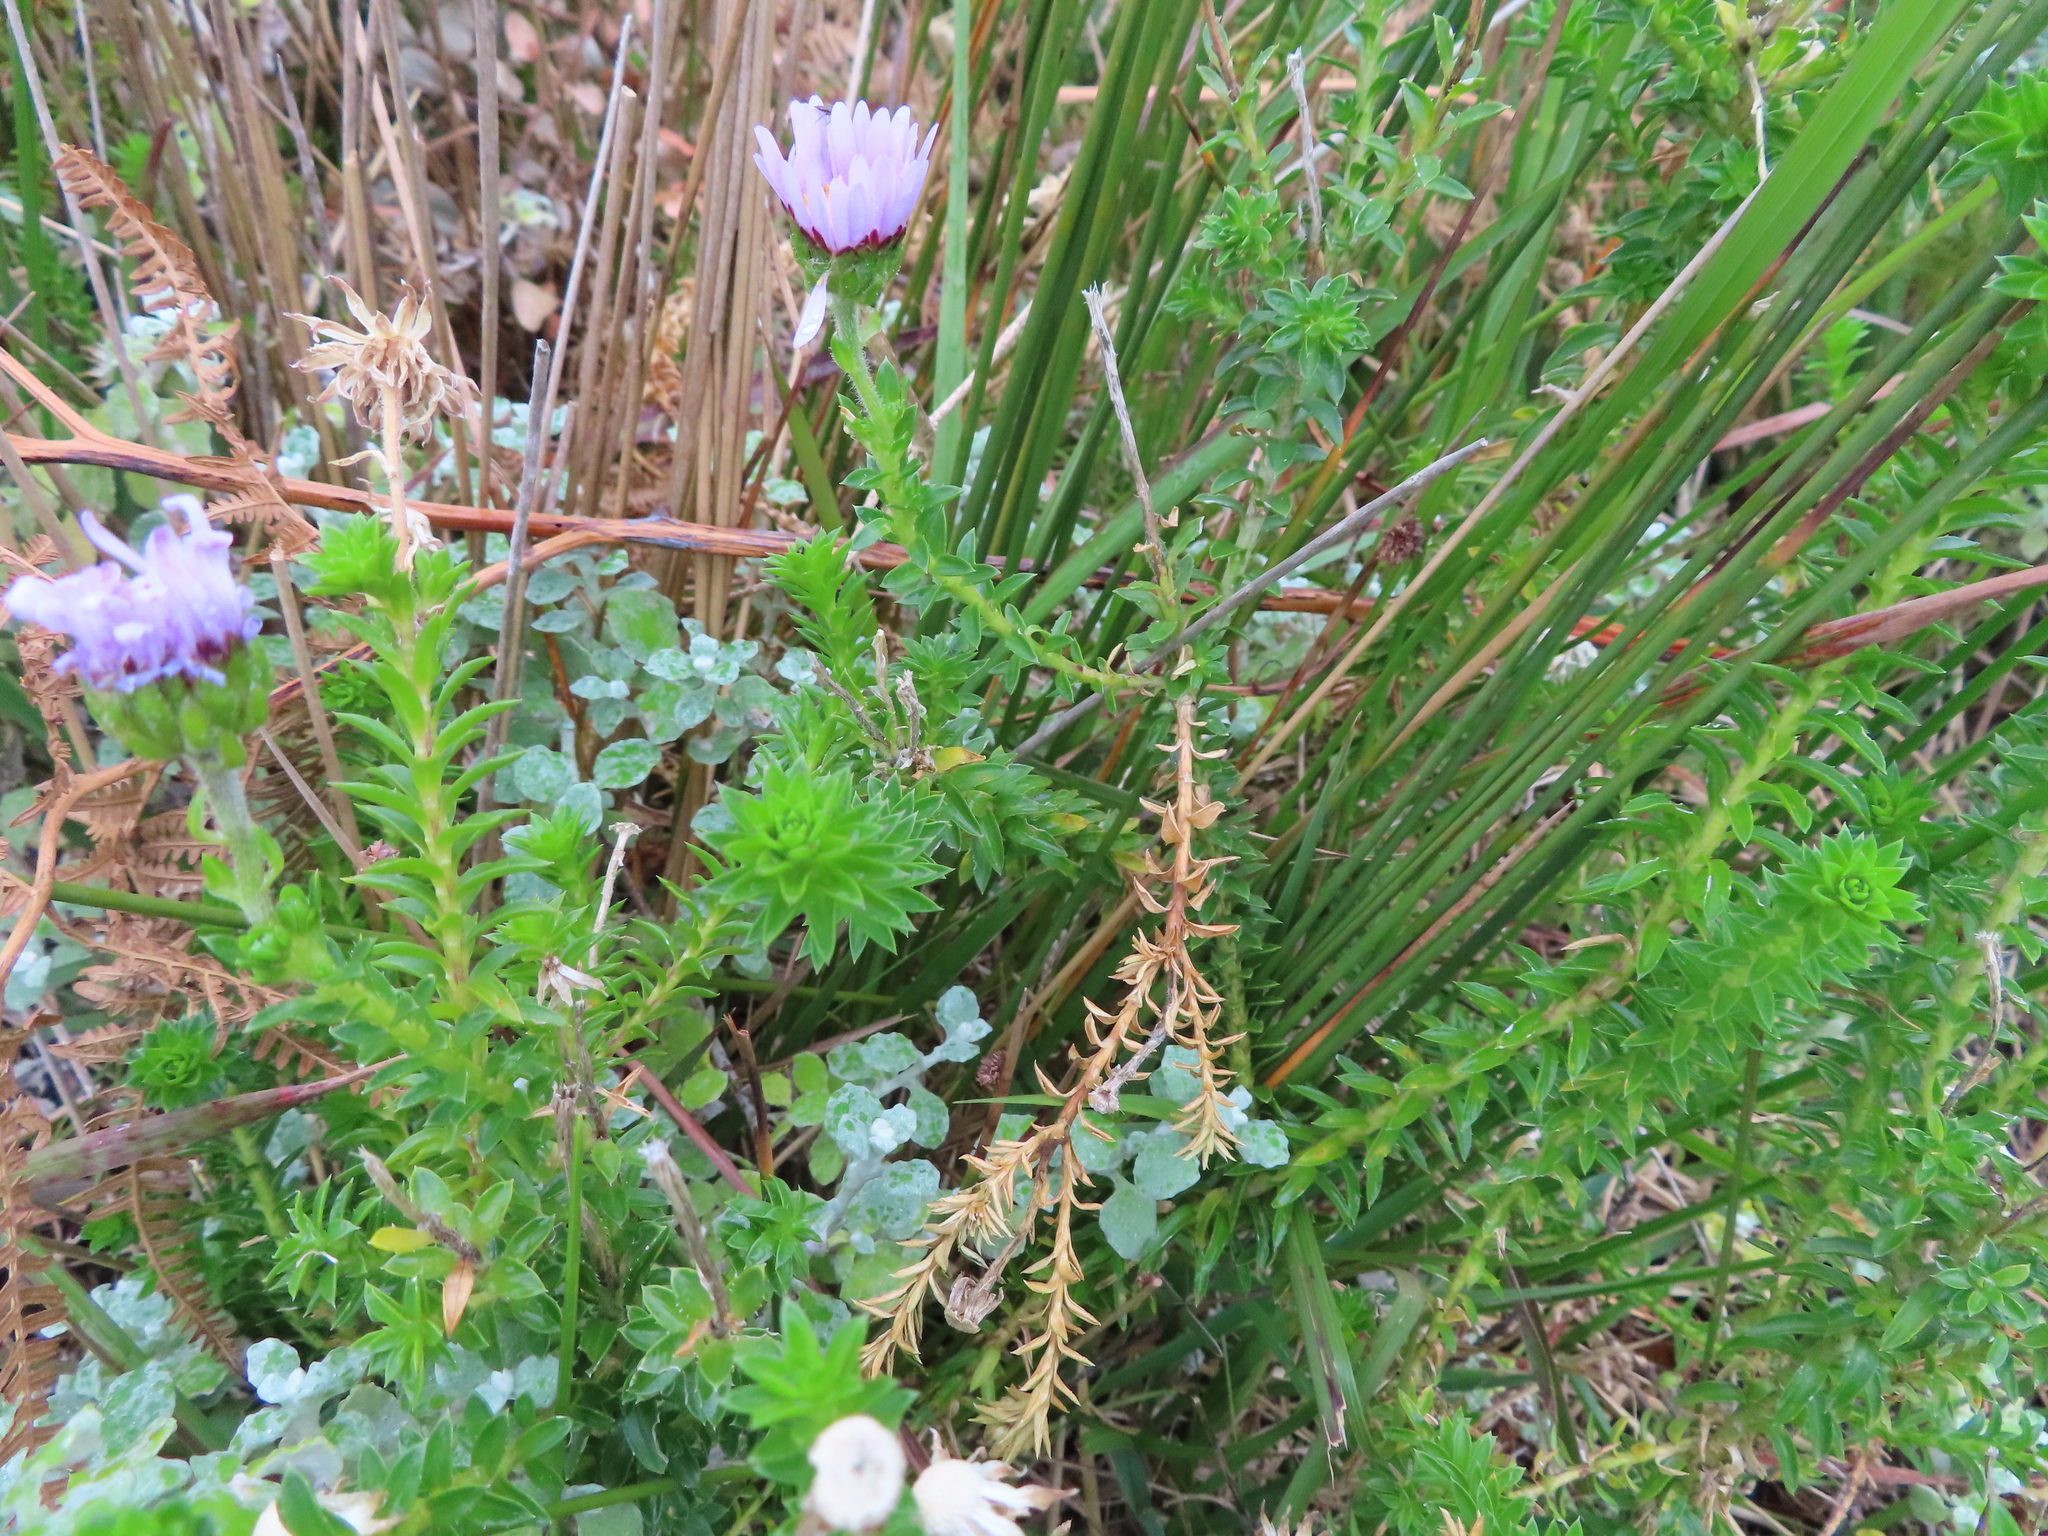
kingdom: Plantae
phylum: Tracheophyta
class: Magnoliopsida
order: Asterales
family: Asteraceae
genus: Felicia
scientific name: Felicia echinata
